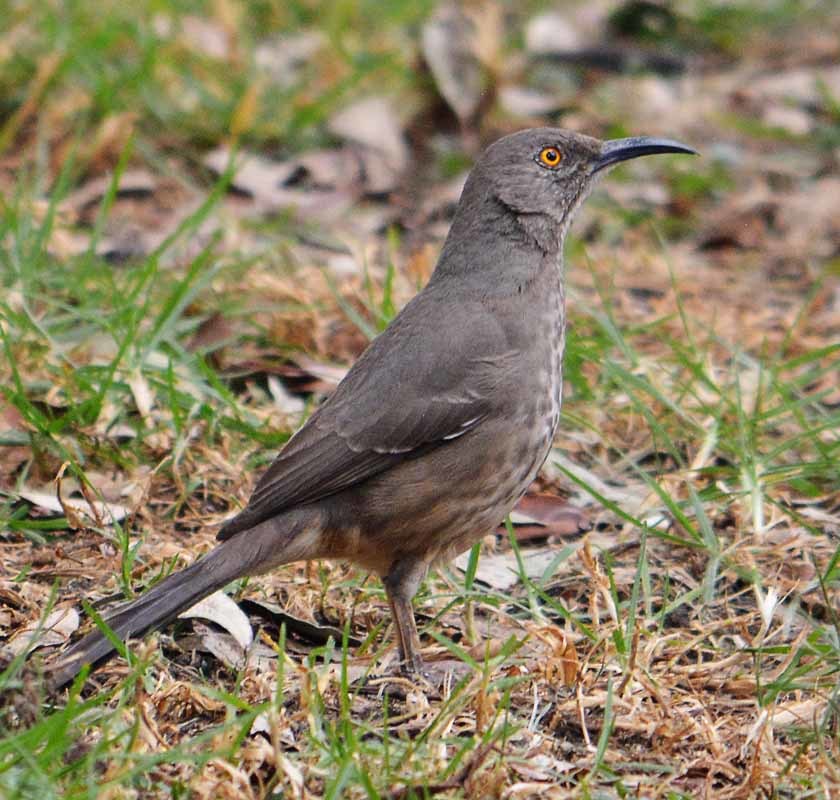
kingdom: Animalia
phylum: Chordata
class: Aves
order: Passeriformes
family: Mimidae
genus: Toxostoma
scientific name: Toxostoma curvirostre
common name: Curve-billed thrasher
